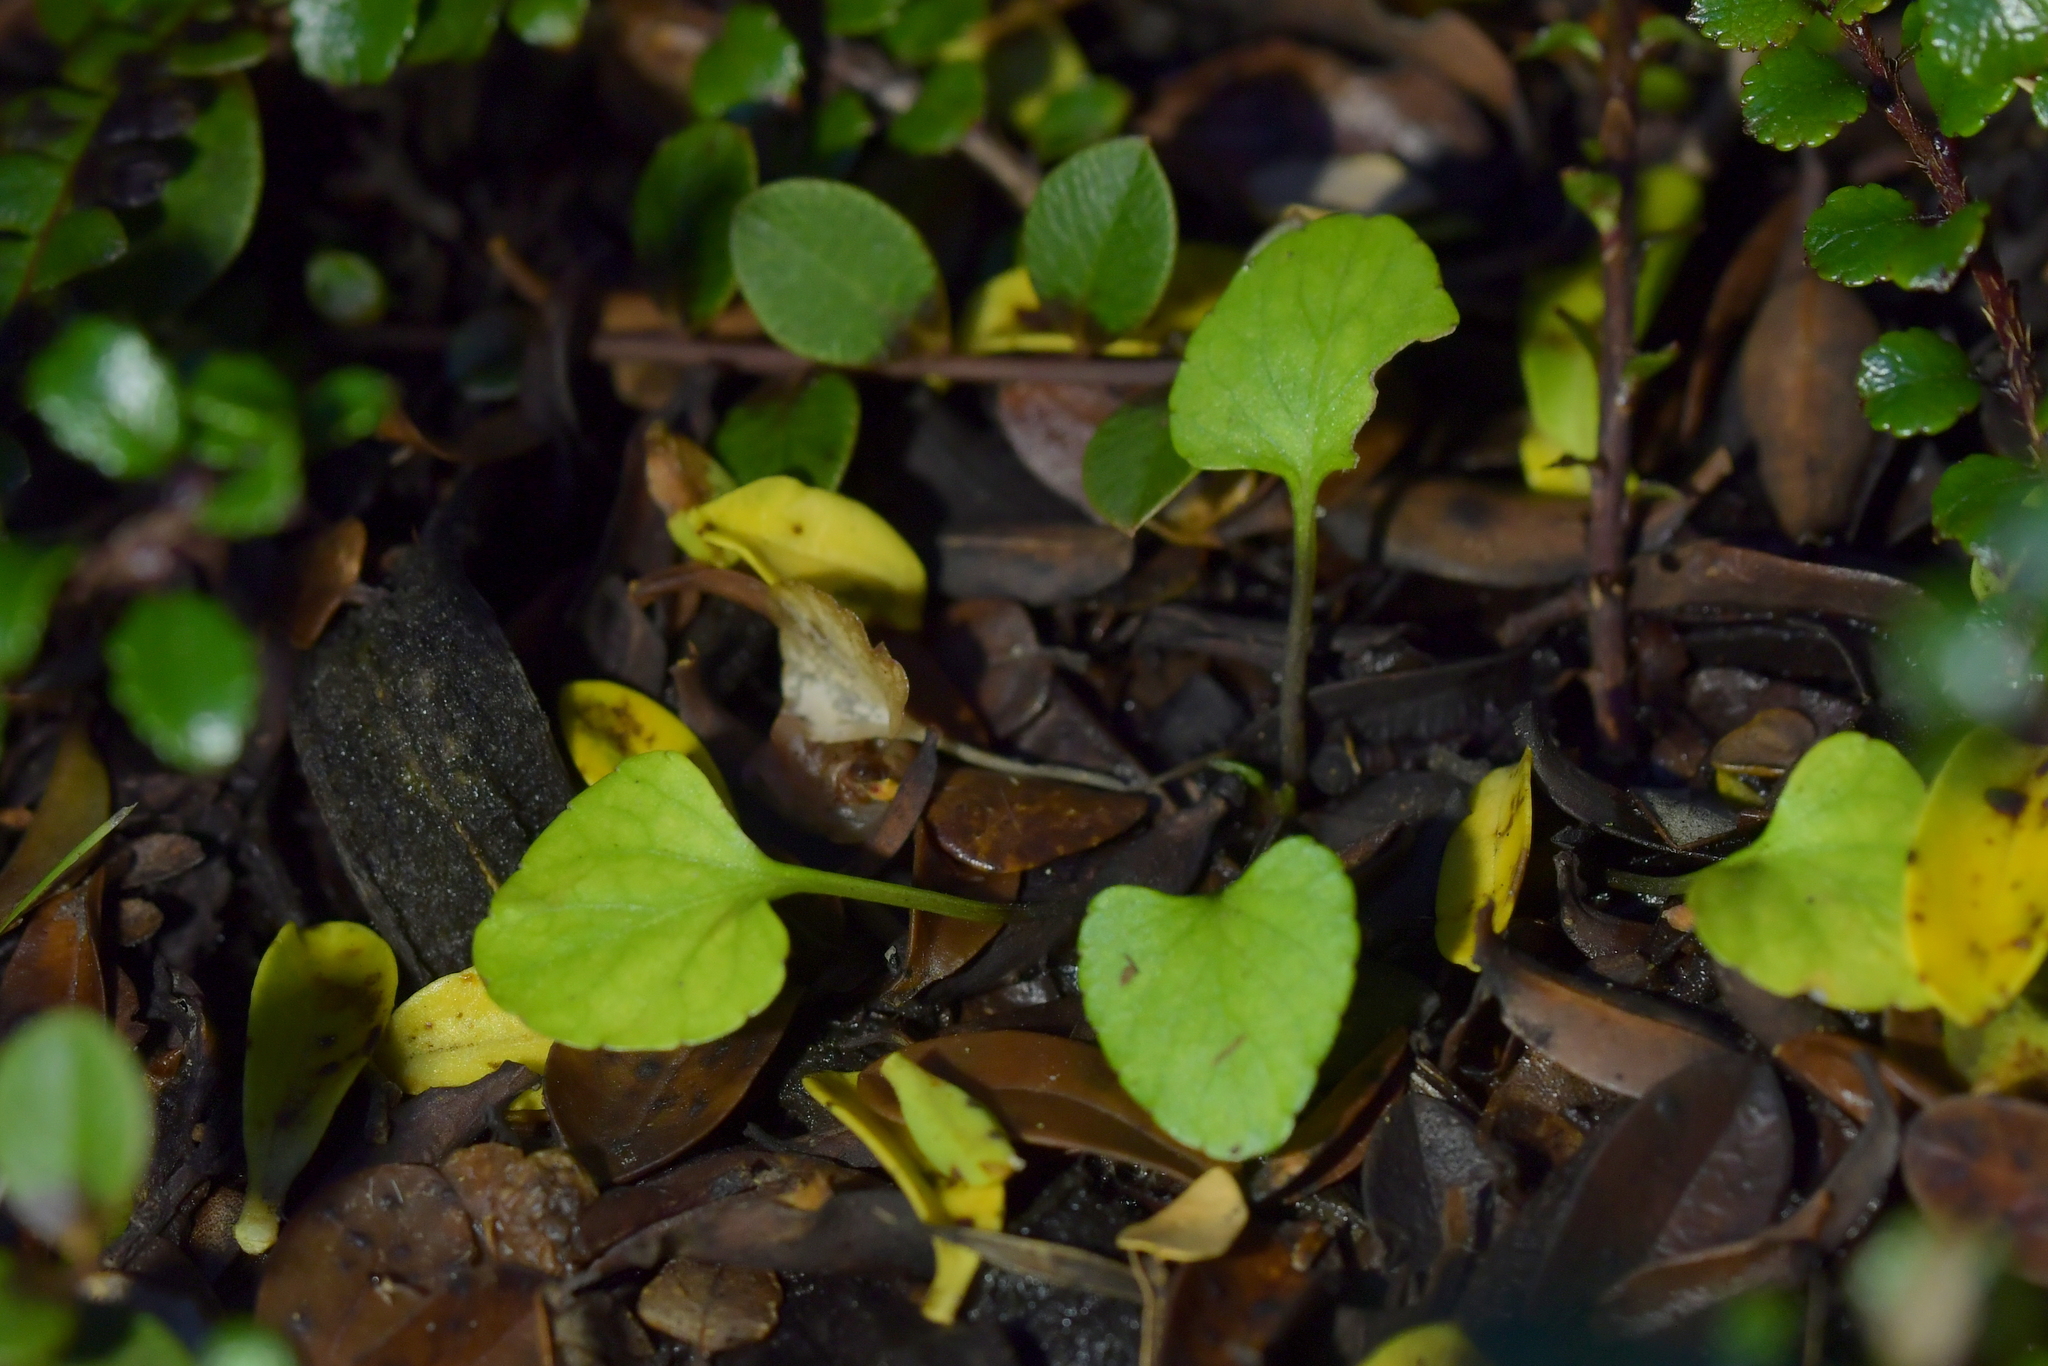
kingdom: Plantae
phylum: Tracheophyta
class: Magnoliopsida
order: Malpighiales
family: Violaceae
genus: Viola
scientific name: Viola cunninghamii
